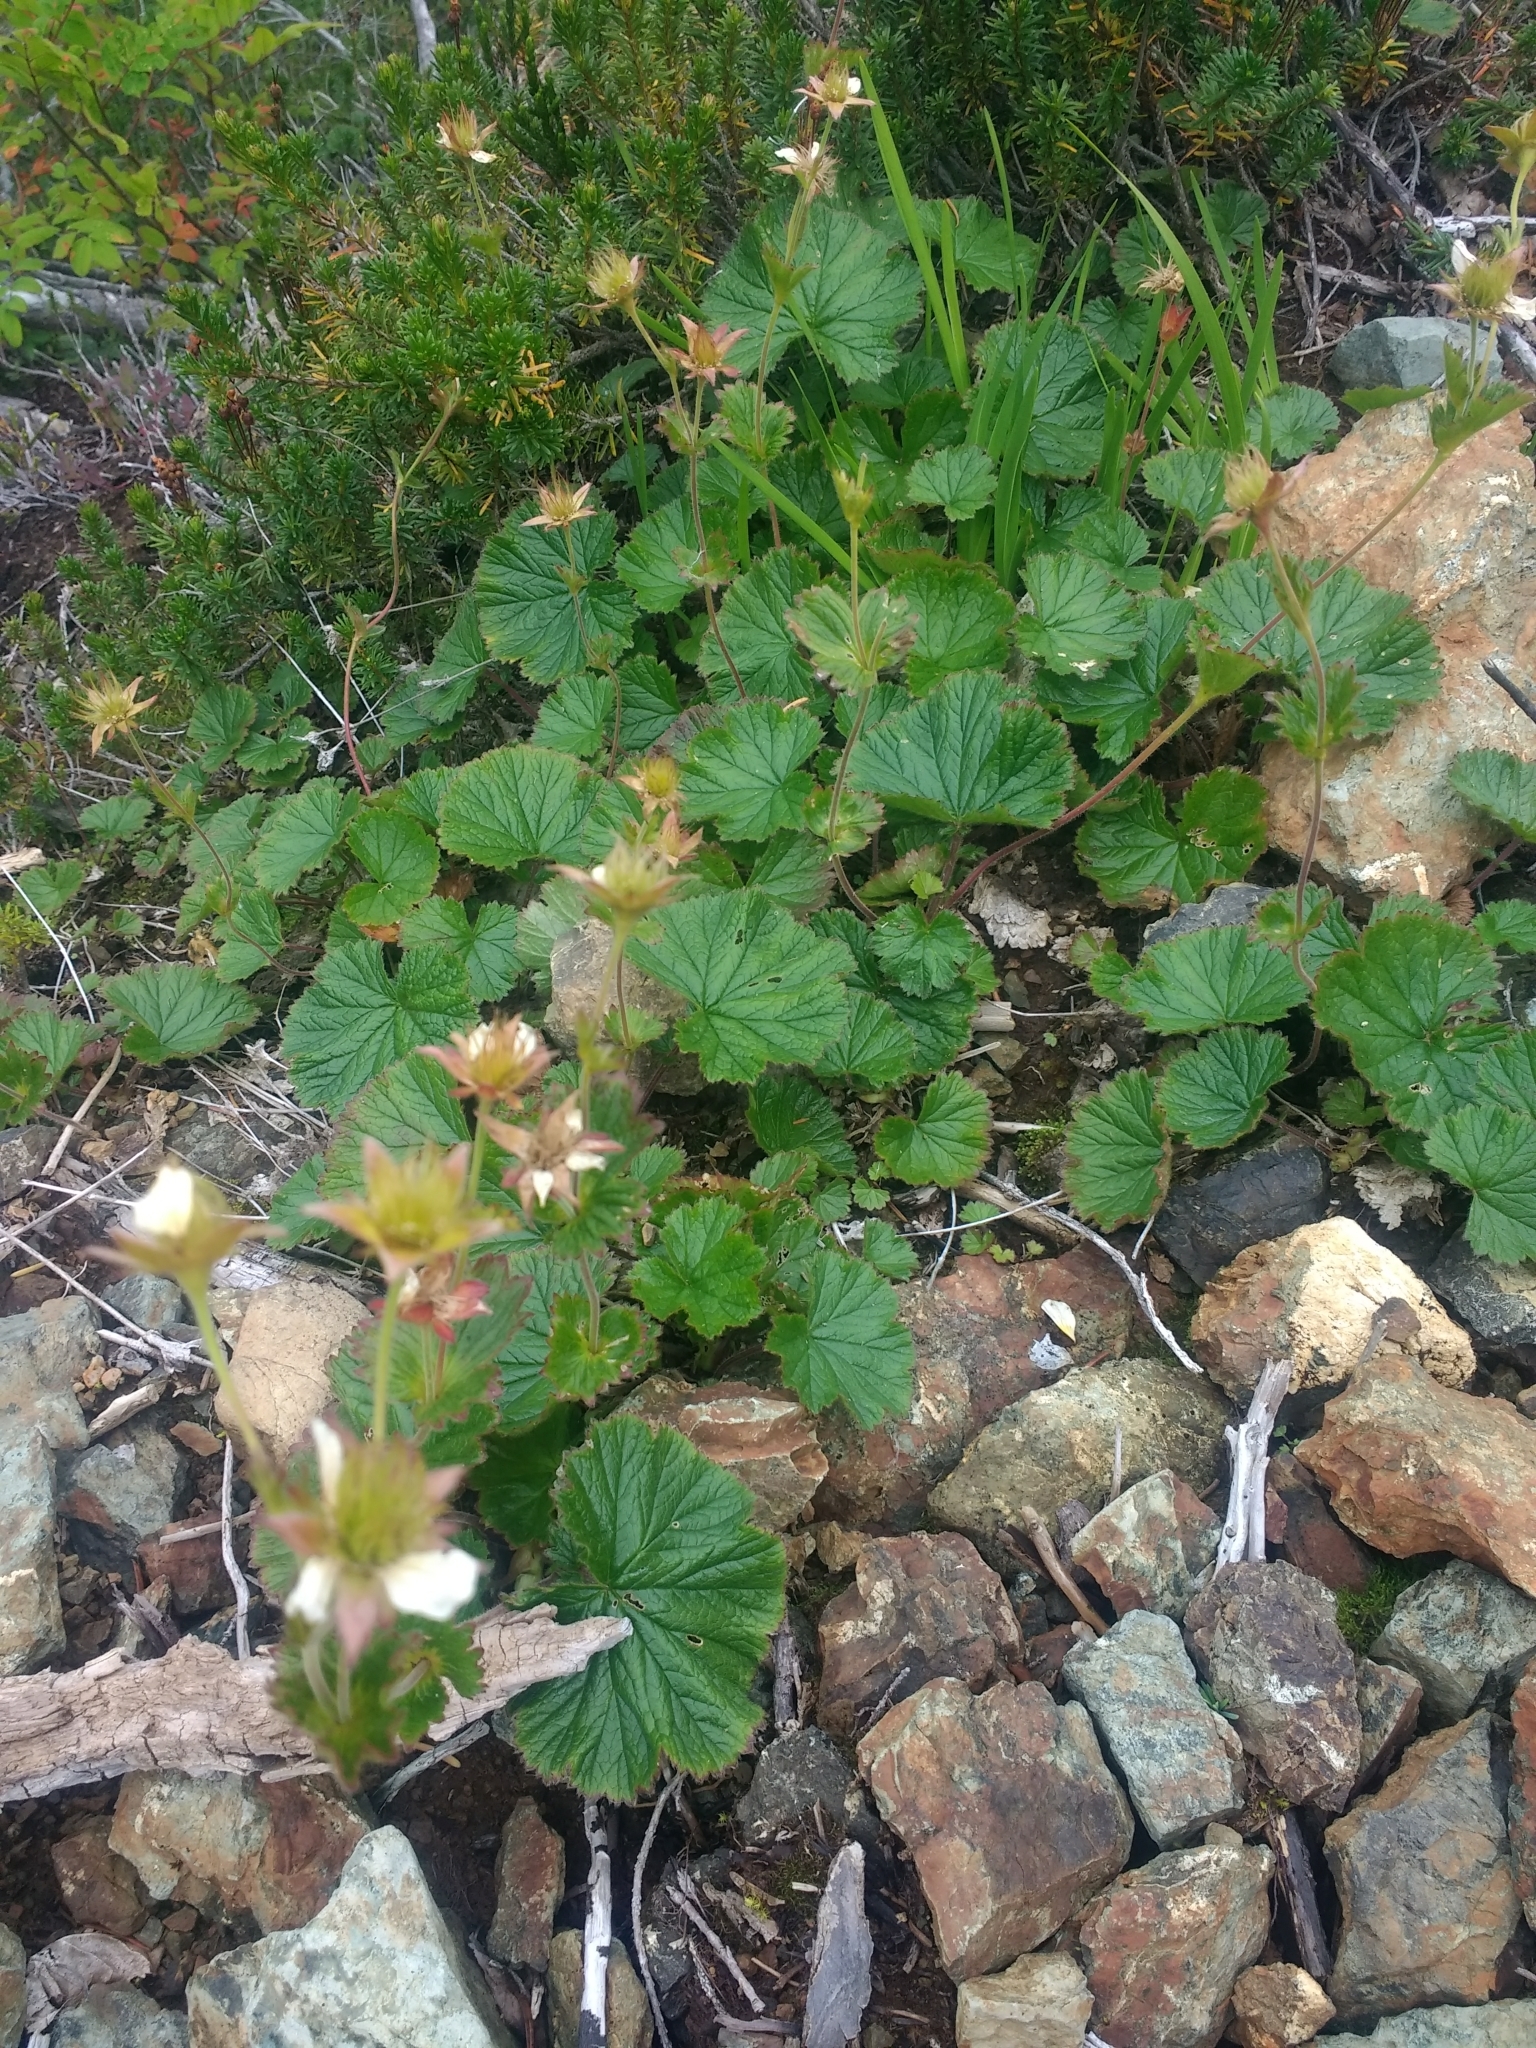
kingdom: Plantae
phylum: Tracheophyta
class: Magnoliopsida
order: Rosales
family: Rosaceae
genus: Geum
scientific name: Geum calthifolium
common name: Caltha-leaved avens
